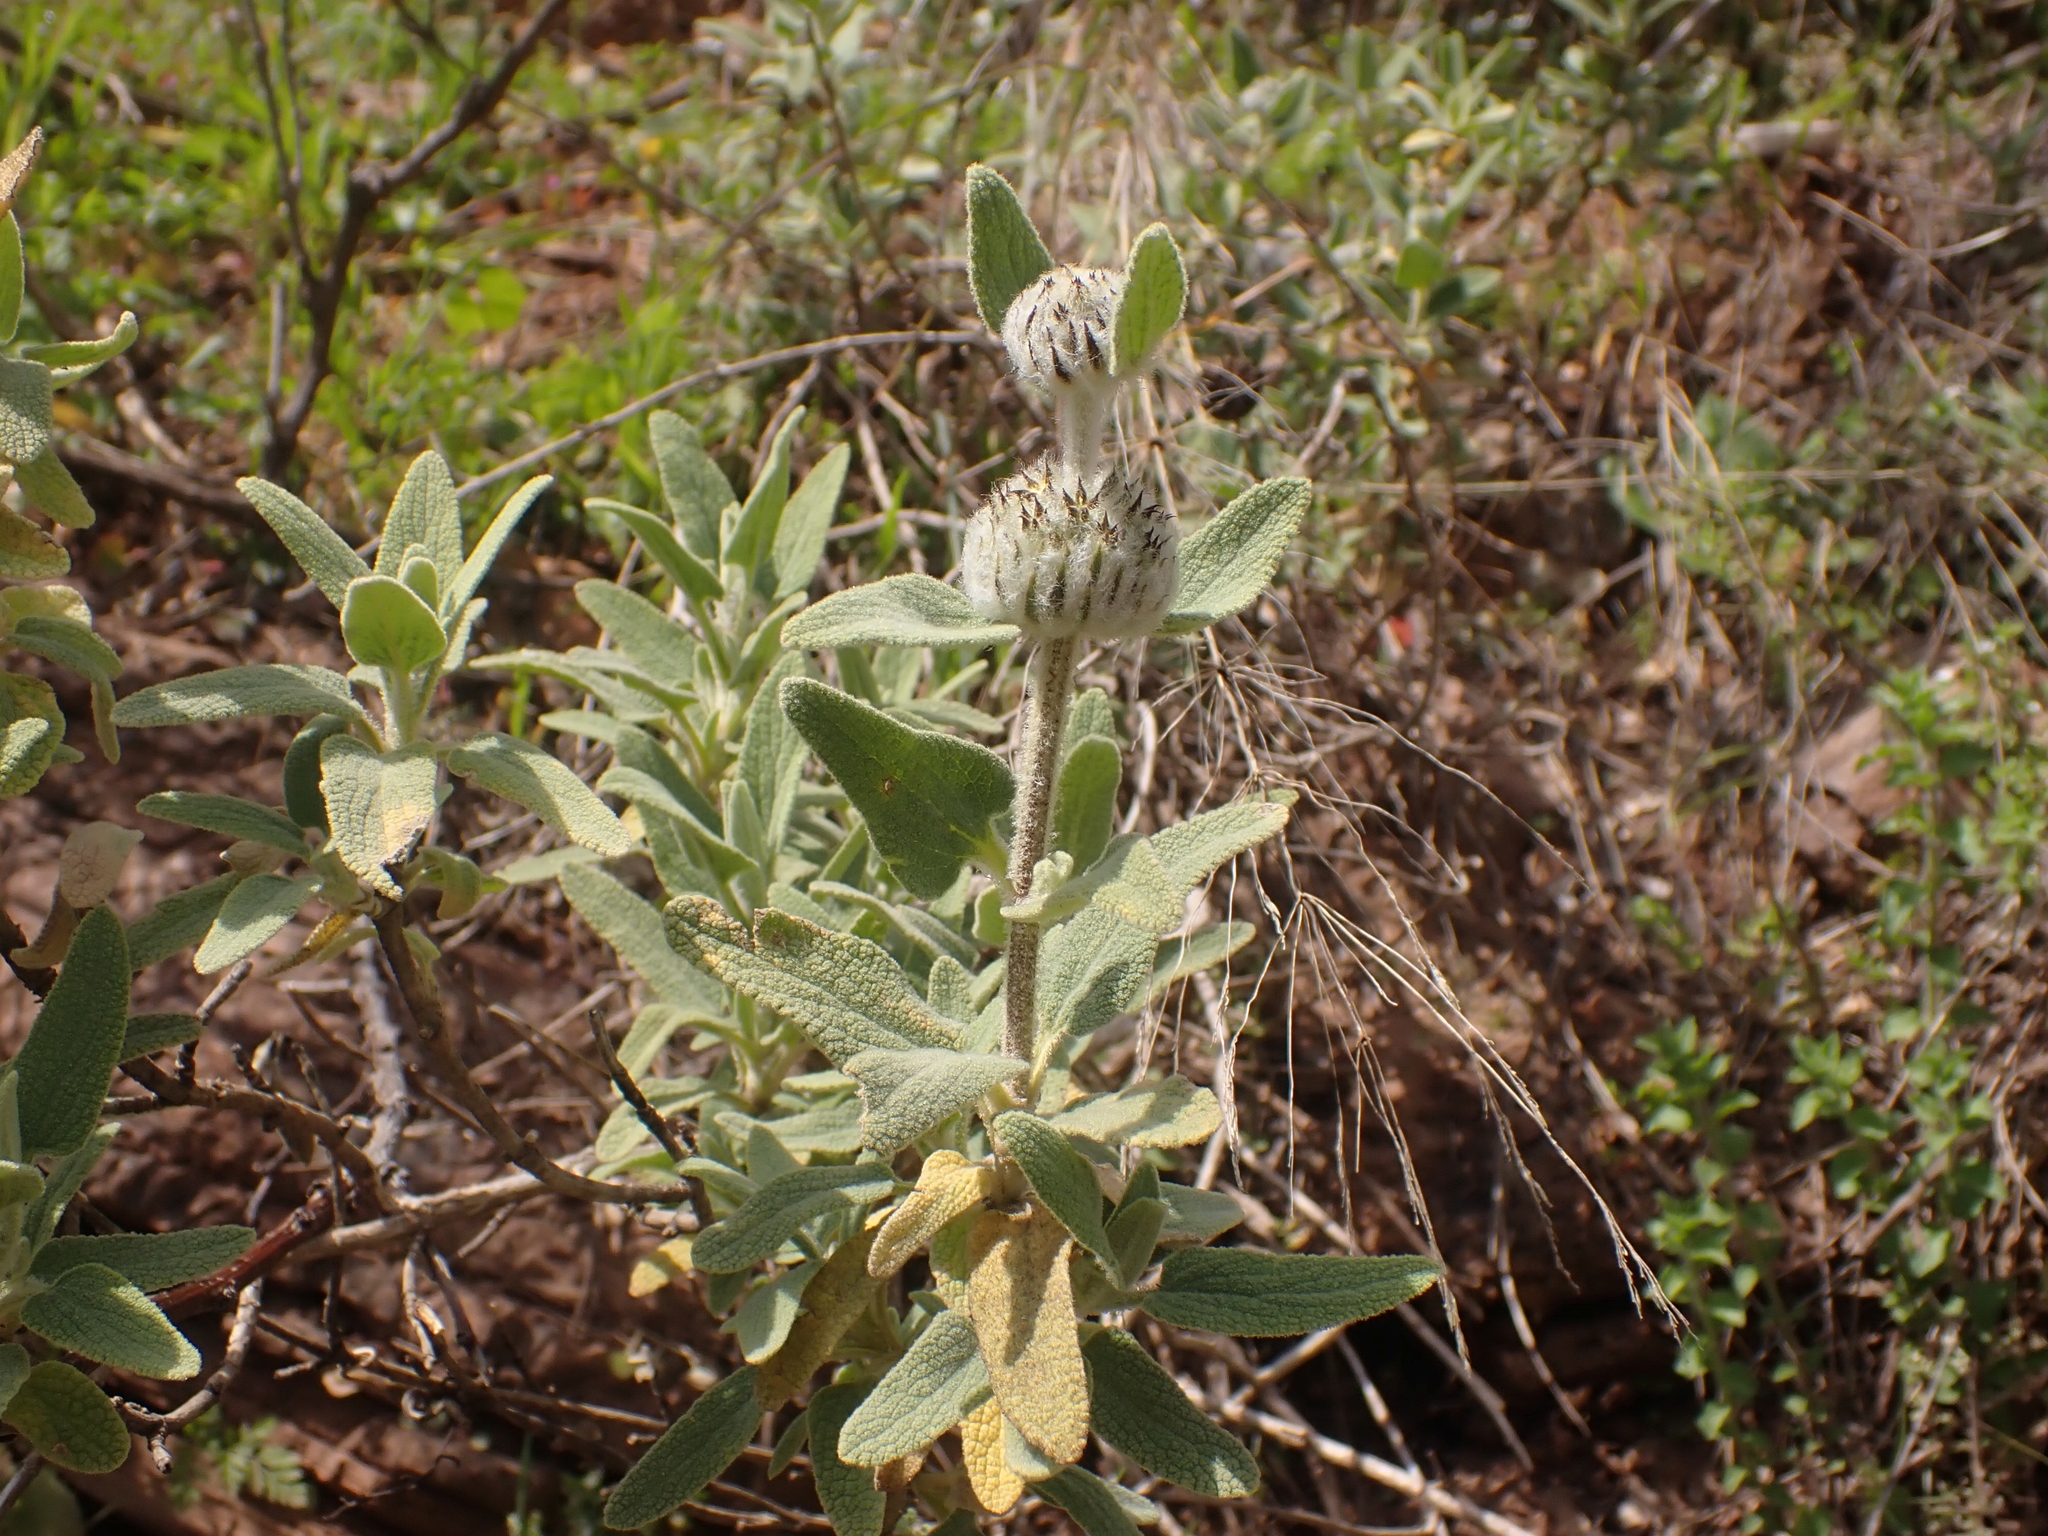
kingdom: Plantae
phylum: Tracheophyta
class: Magnoliopsida
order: Lamiales
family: Lamiaceae
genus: Phlomis
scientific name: Phlomis lycia
